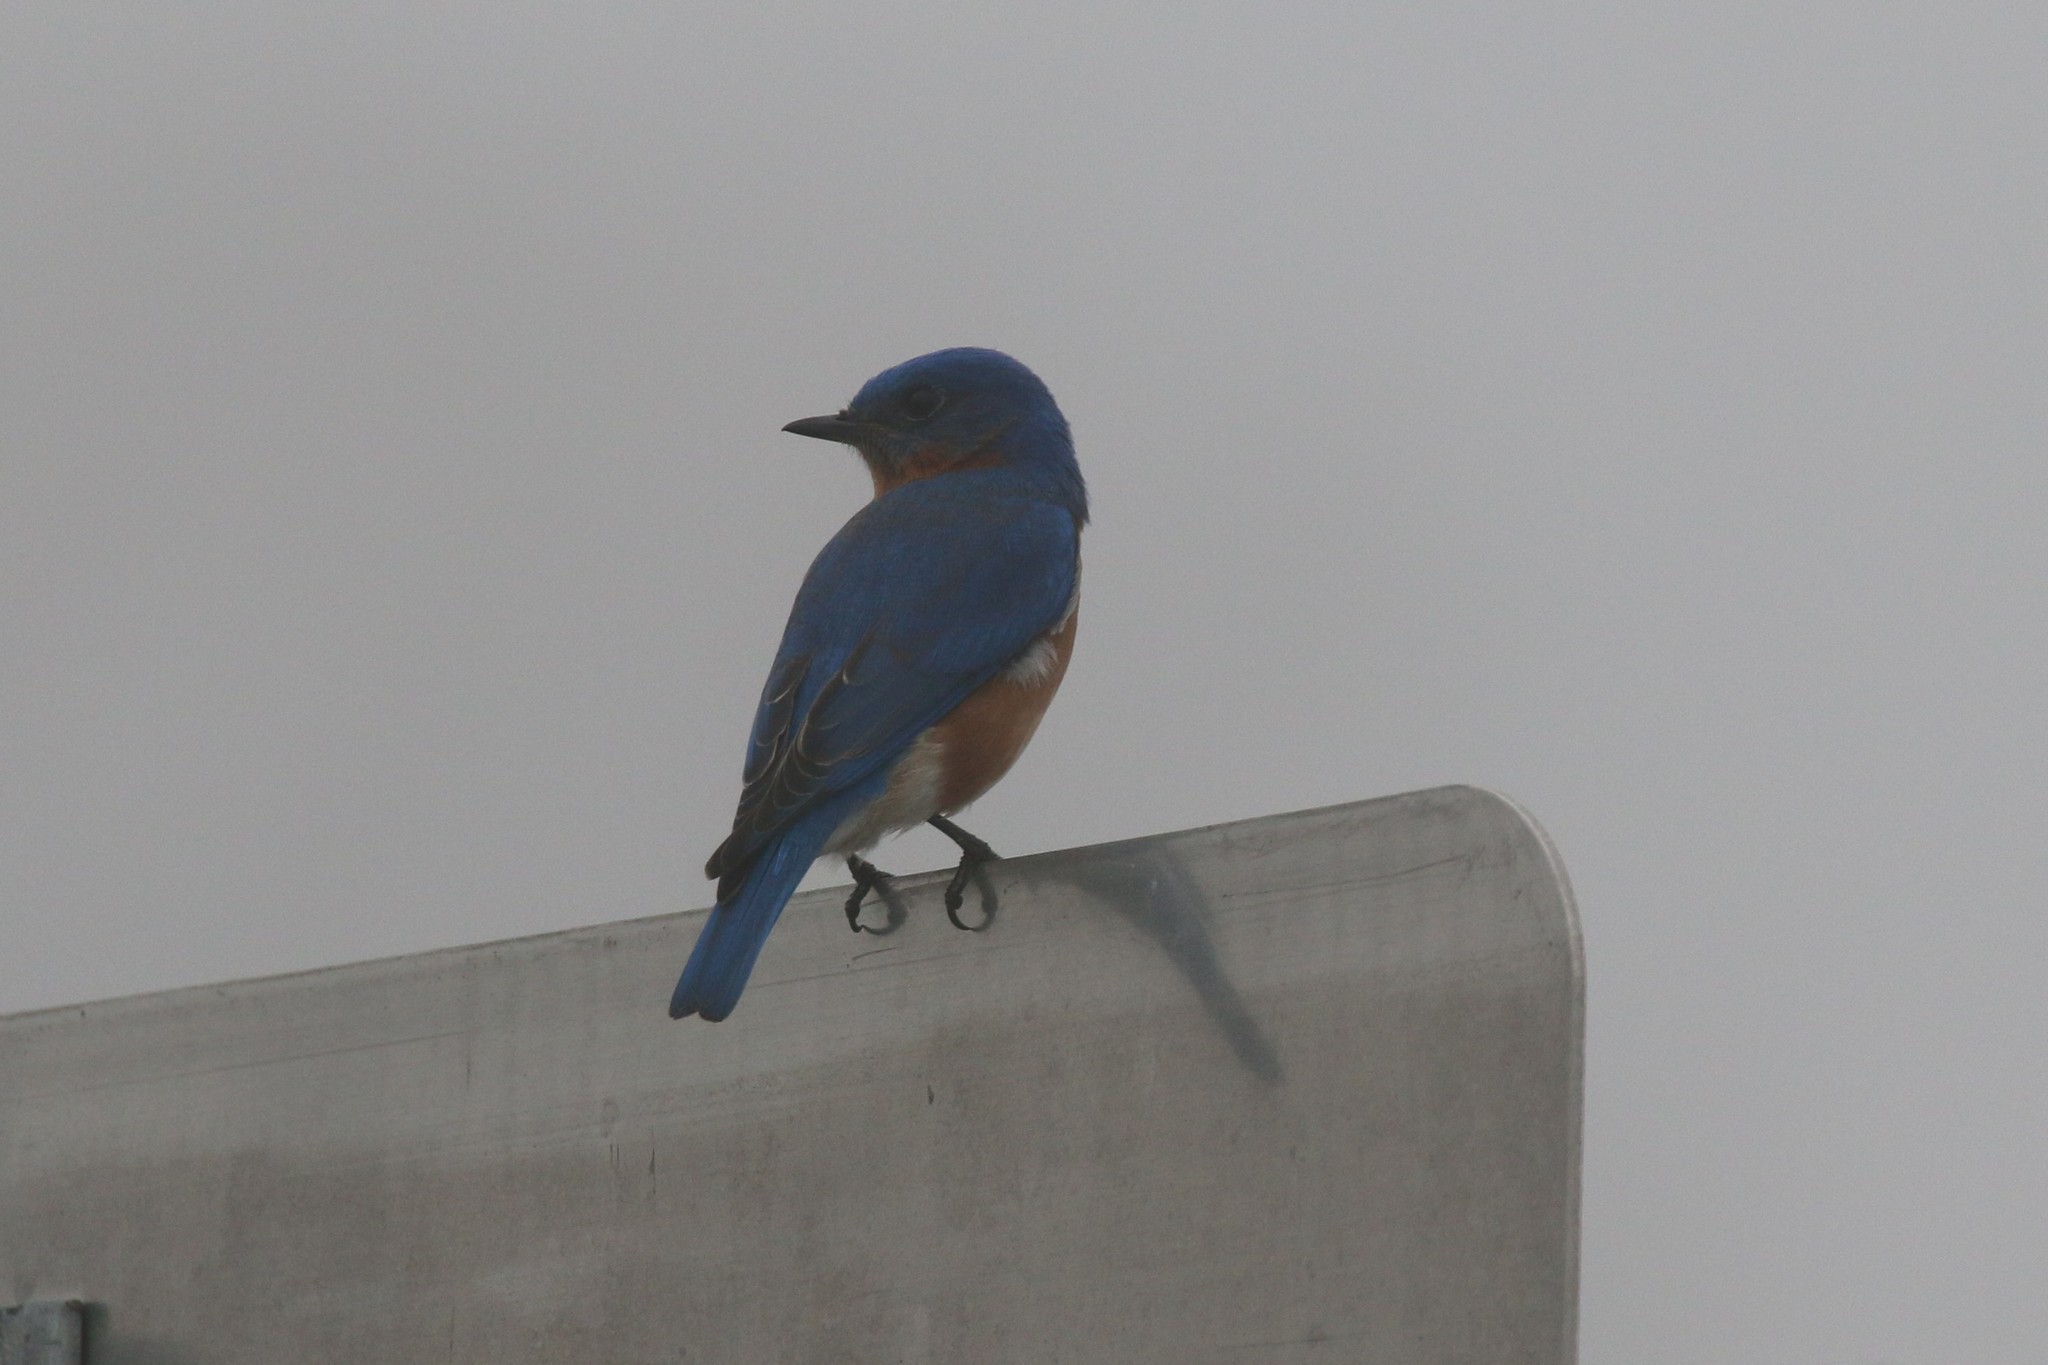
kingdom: Animalia
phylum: Chordata
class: Aves
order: Passeriformes
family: Turdidae
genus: Sialia
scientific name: Sialia sialis
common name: Eastern bluebird
